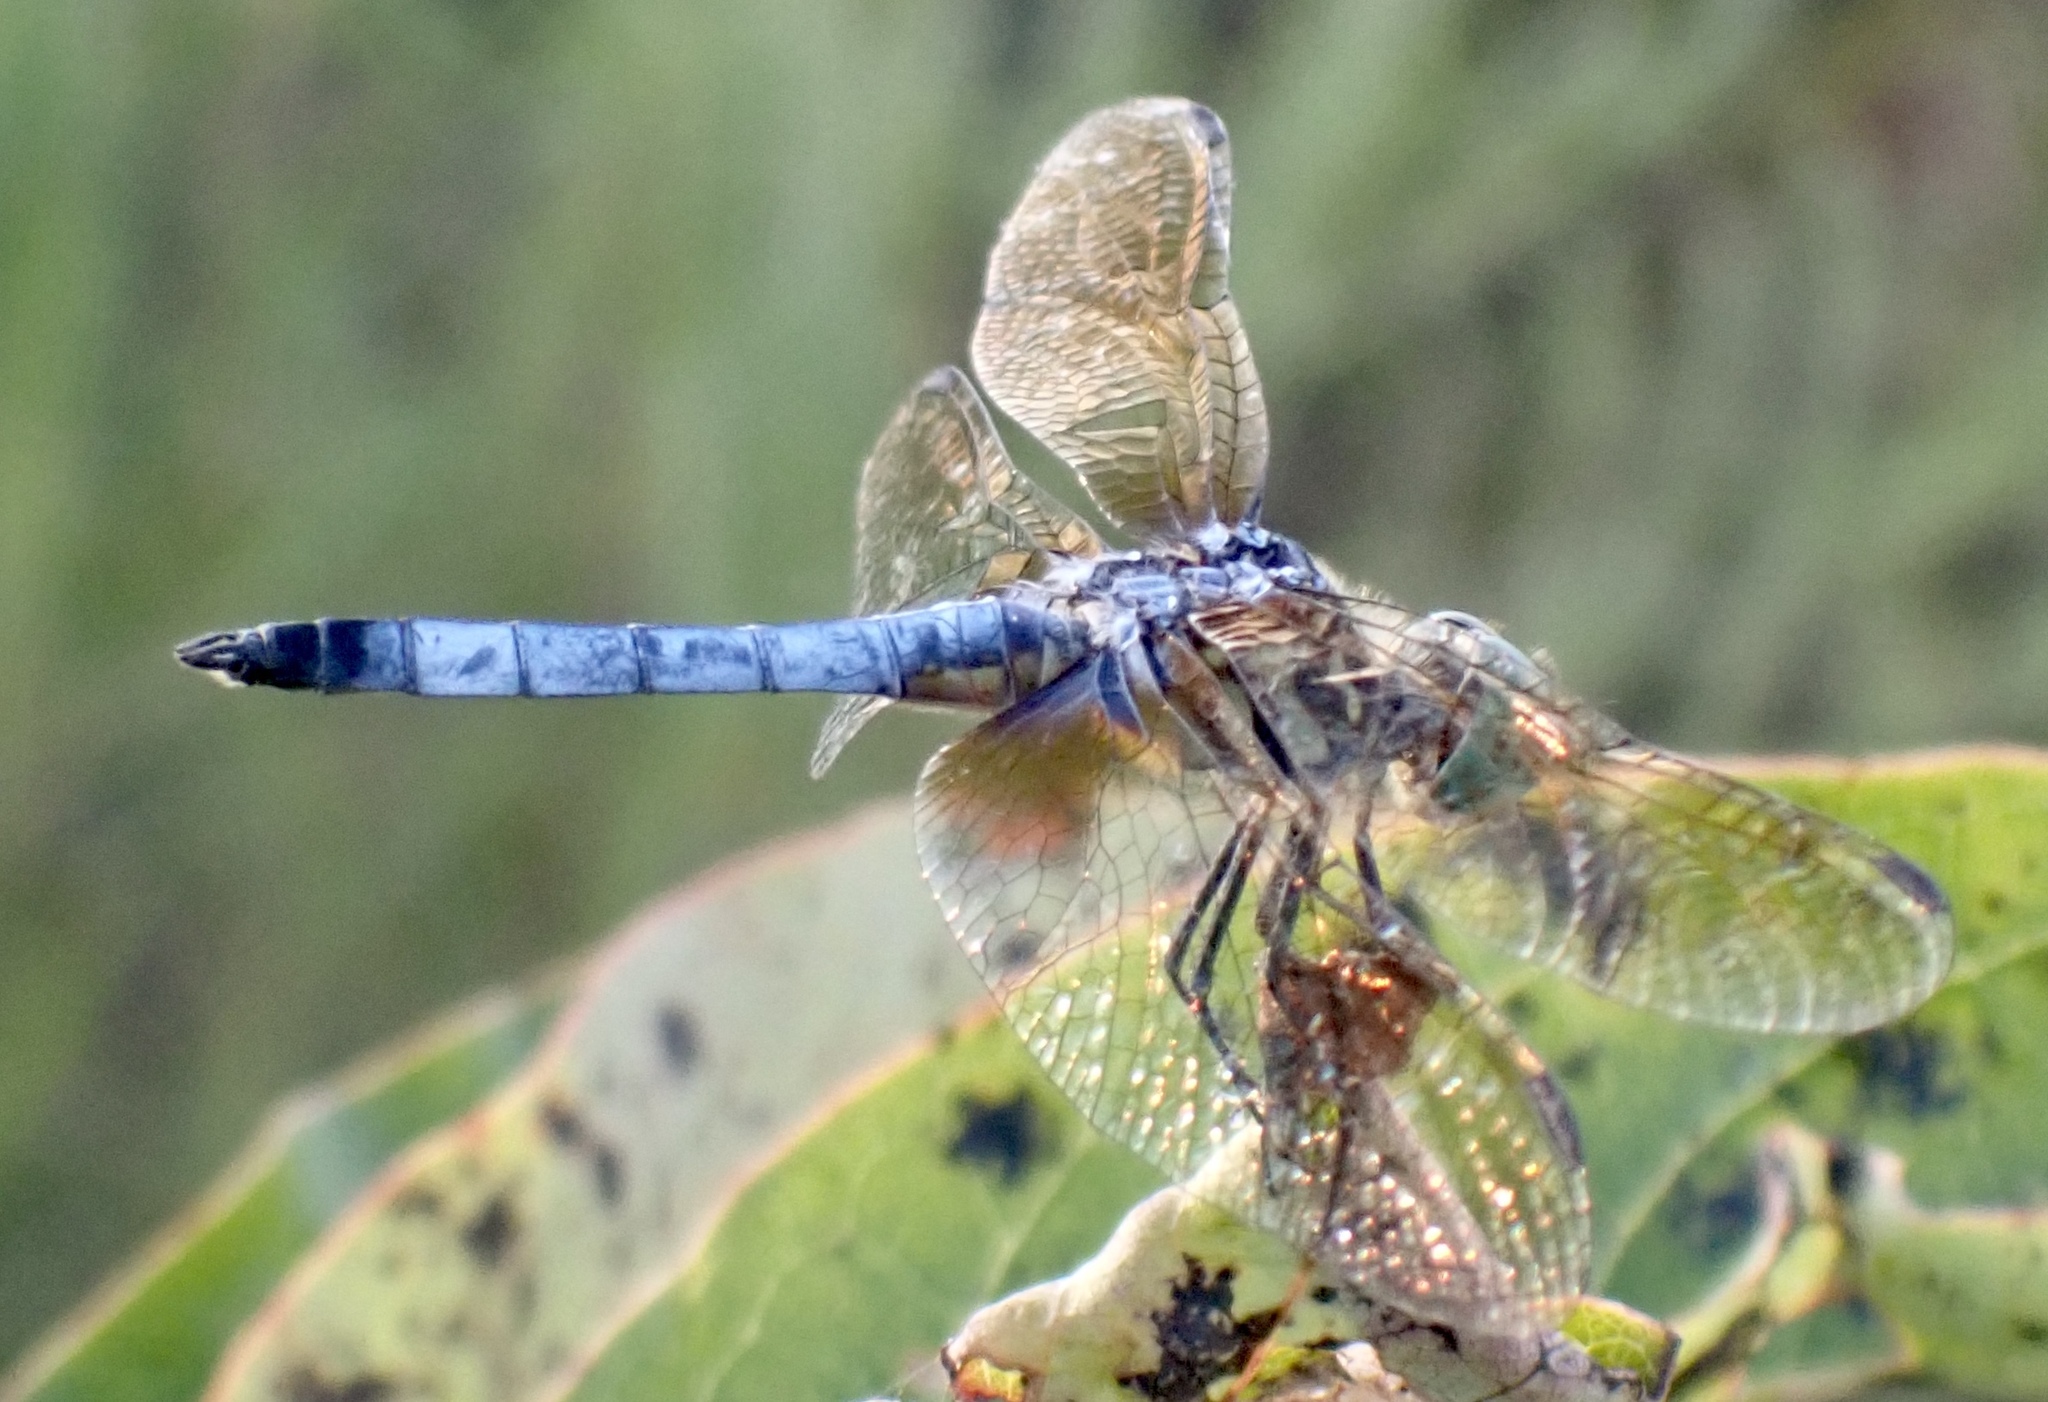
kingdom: Animalia
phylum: Arthropoda
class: Insecta
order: Odonata
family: Libellulidae
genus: Pachydiplax
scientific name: Pachydiplax longipennis
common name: Blue dasher
